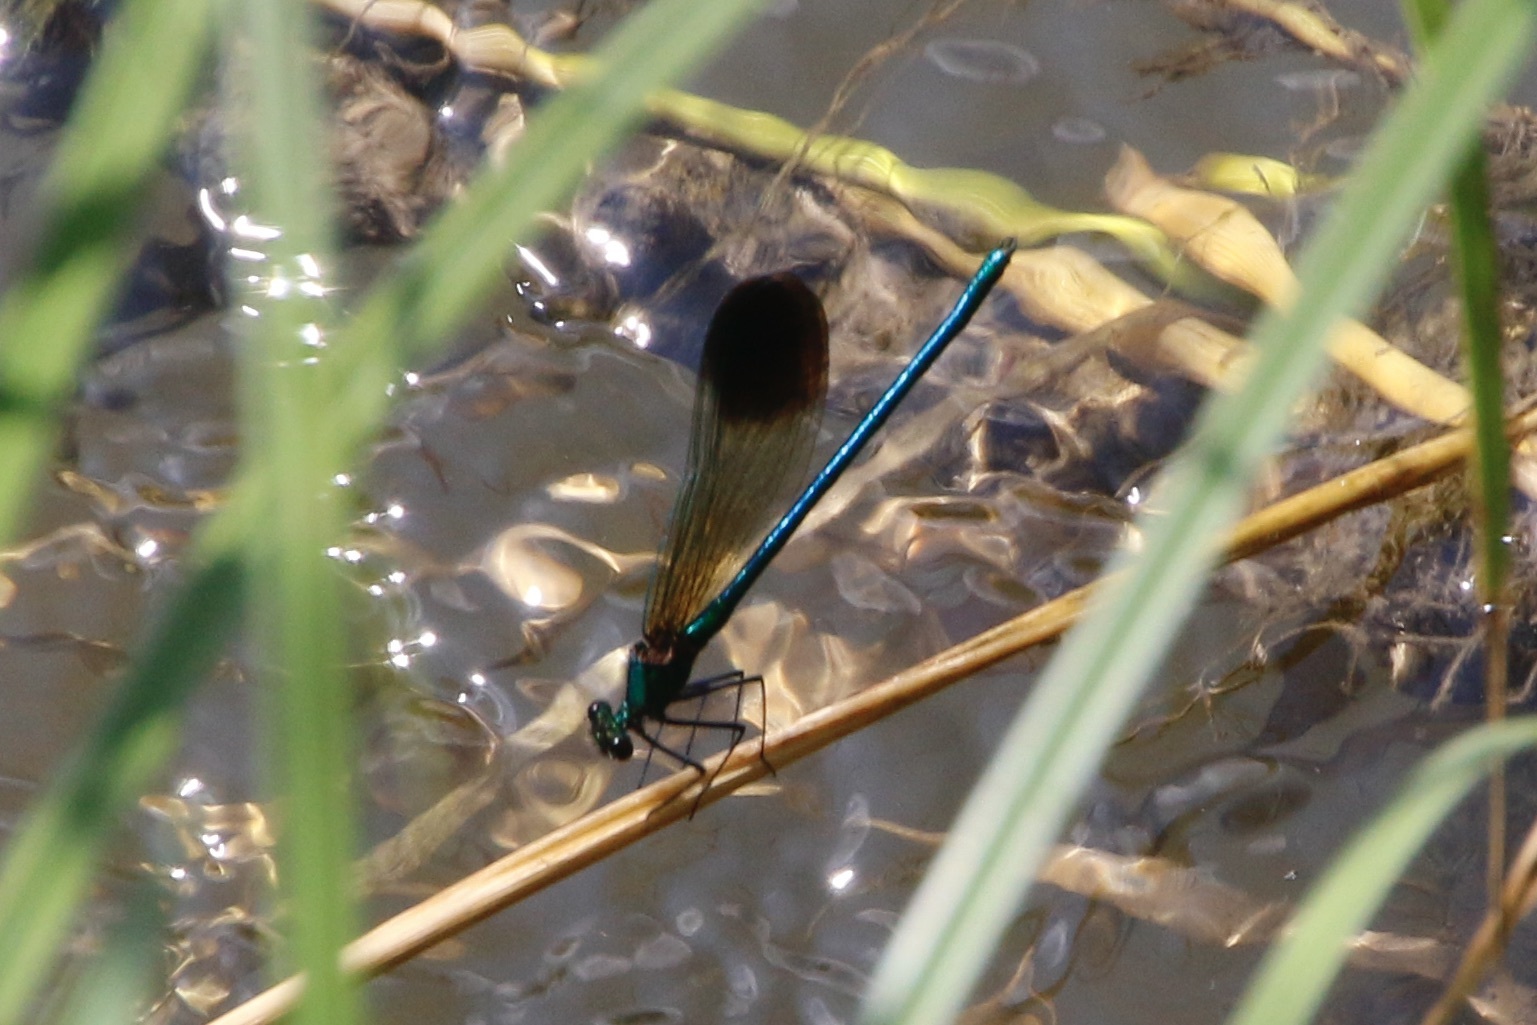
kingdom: Animalia
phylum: Arthropoda
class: Insecta
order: Odonata
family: Calopterygidae
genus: Calopteryx
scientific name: Calopteryx aequabilis
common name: River jewelwing
